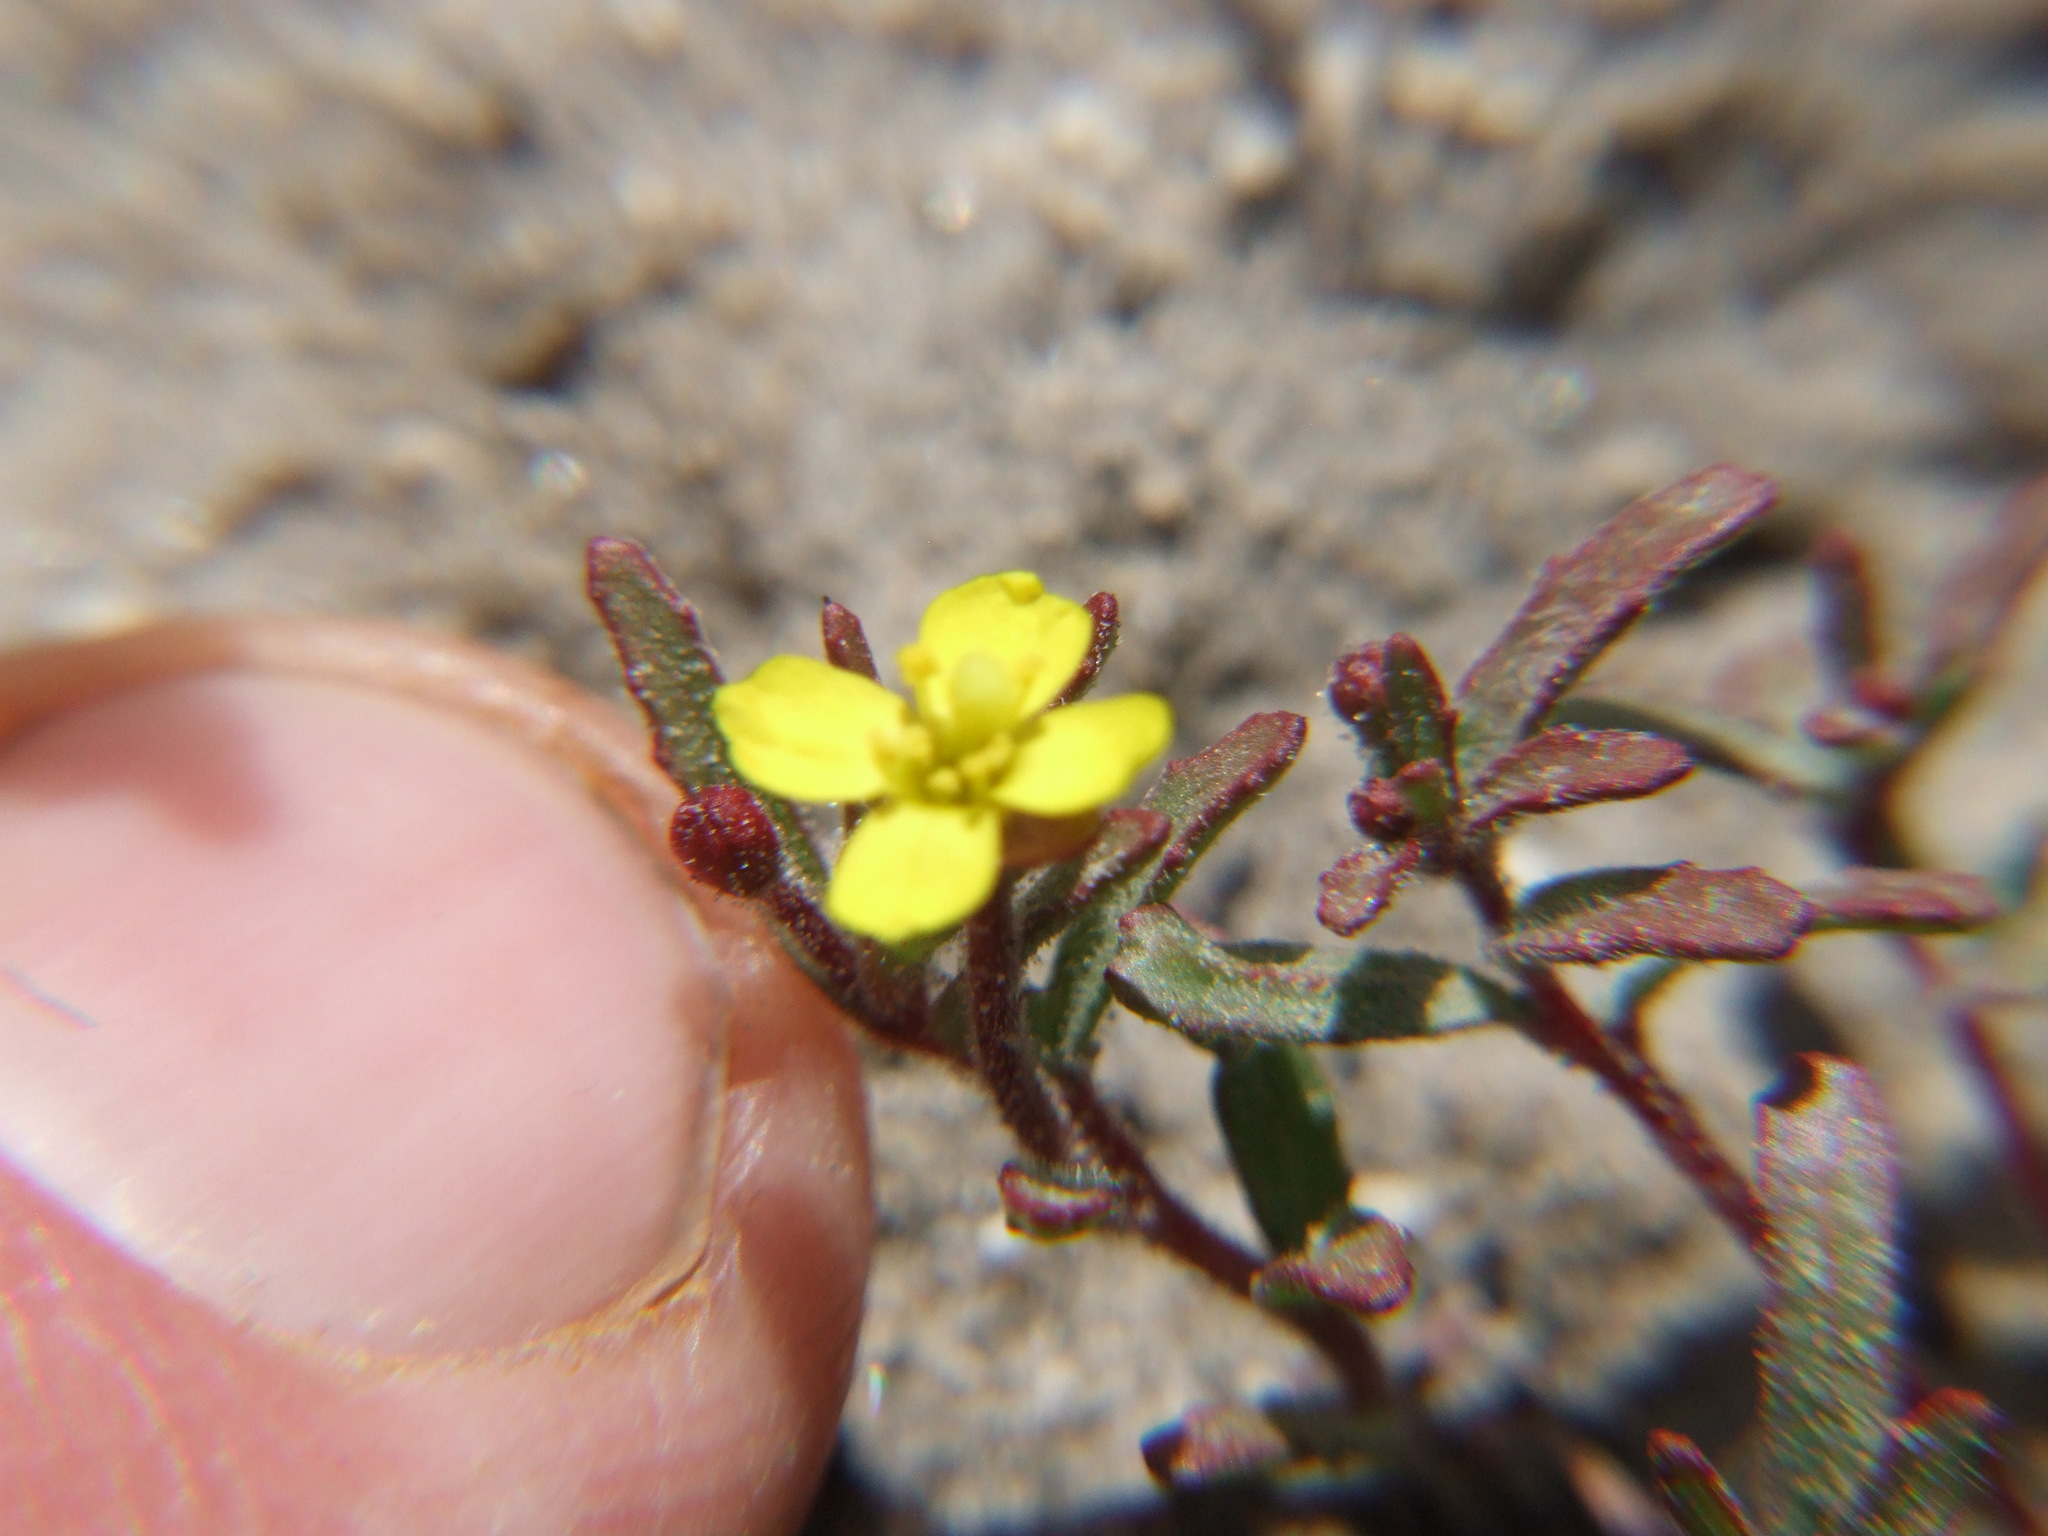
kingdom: Plantae
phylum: Tracheophyta
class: Magnoliopsida
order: Myrtales
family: Onagraceae
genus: Camissonia
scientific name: Camissonia dentata
